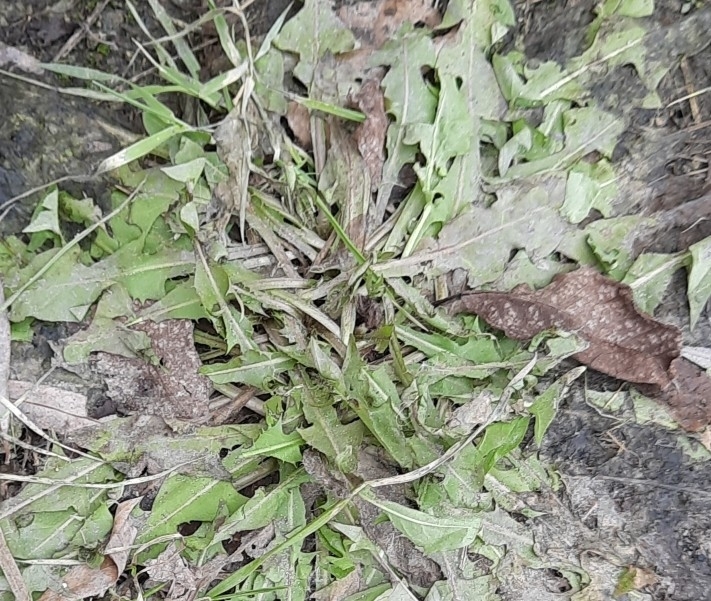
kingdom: Plantae
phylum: Tracheophyta
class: Magnoliopsida
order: Asterales
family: Asteraceae
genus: Taraxacum
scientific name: Taraxacum officinale
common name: Common dandelion
